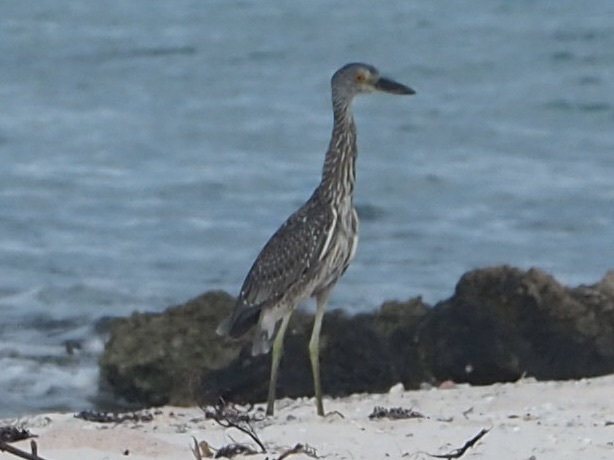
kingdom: Animalia
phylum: Chordata
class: Aves
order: Pelecaniformes
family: Ardeidae
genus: Nyctanassa
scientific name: Nyctanassa violacea
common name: Yellow-crowned night heron
